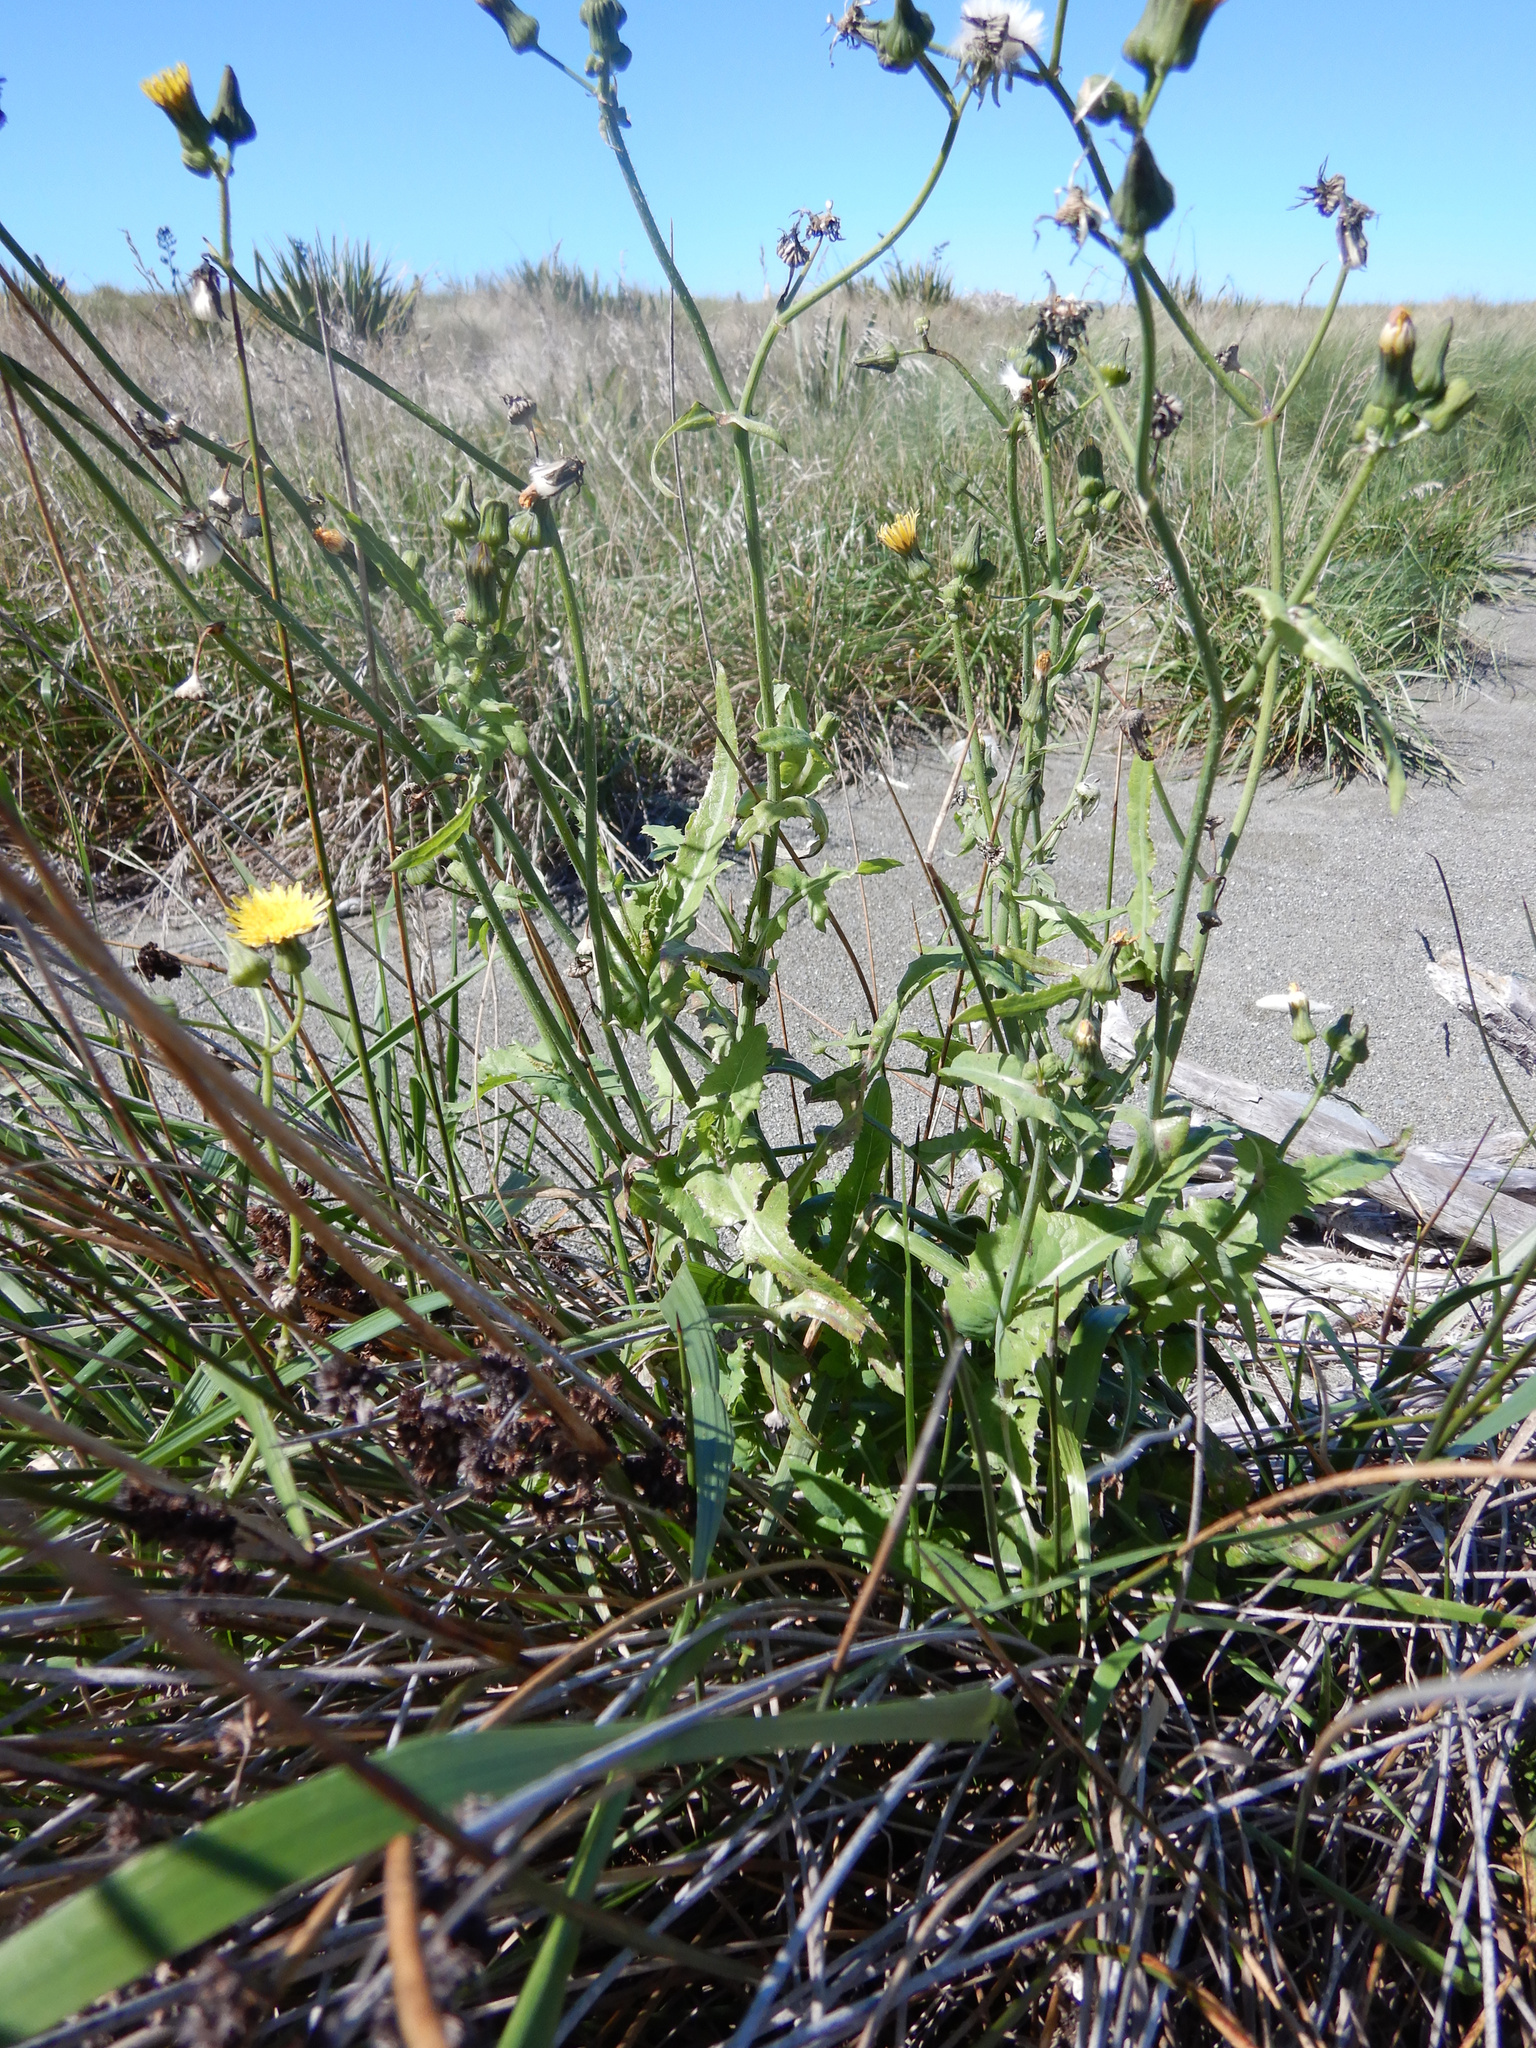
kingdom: Plantae
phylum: Tracheophyta
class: Magnoliopsida
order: Asterales
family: Asteraceae
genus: Sonchus
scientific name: Sonchus oleraceus
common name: Common sowthistle
